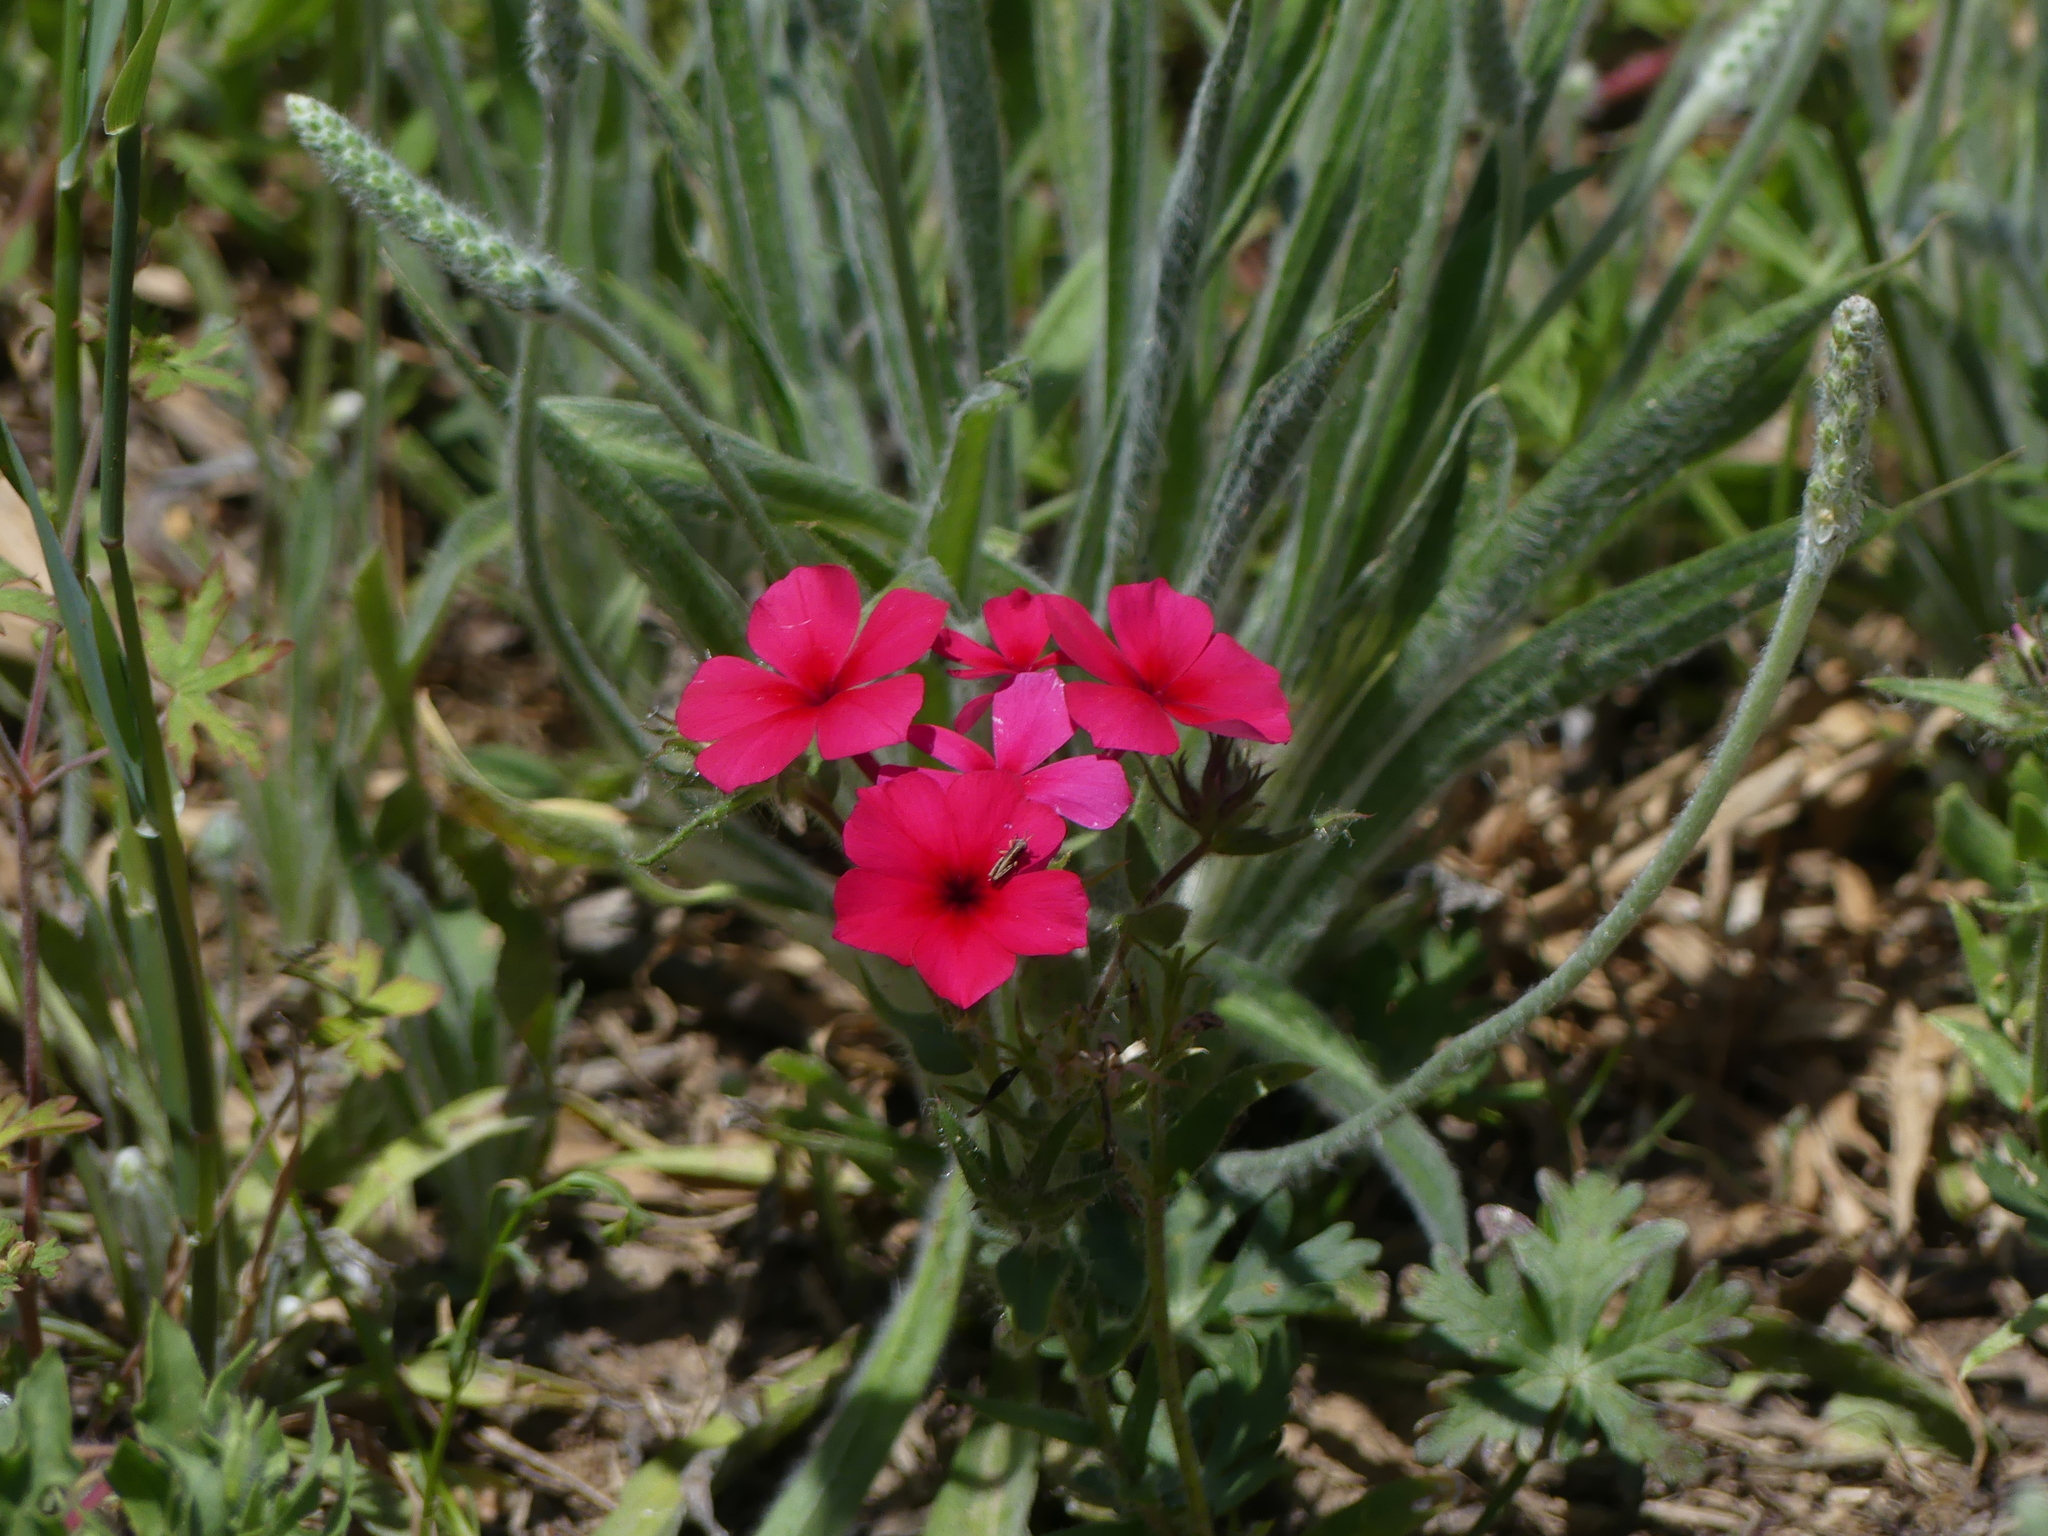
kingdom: Plantae
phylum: Tracheophyta
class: Magnoliopsida
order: Ericales
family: Polemoniaceae
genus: Phlox
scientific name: Phlox drummondii
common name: Drummond's phlox
